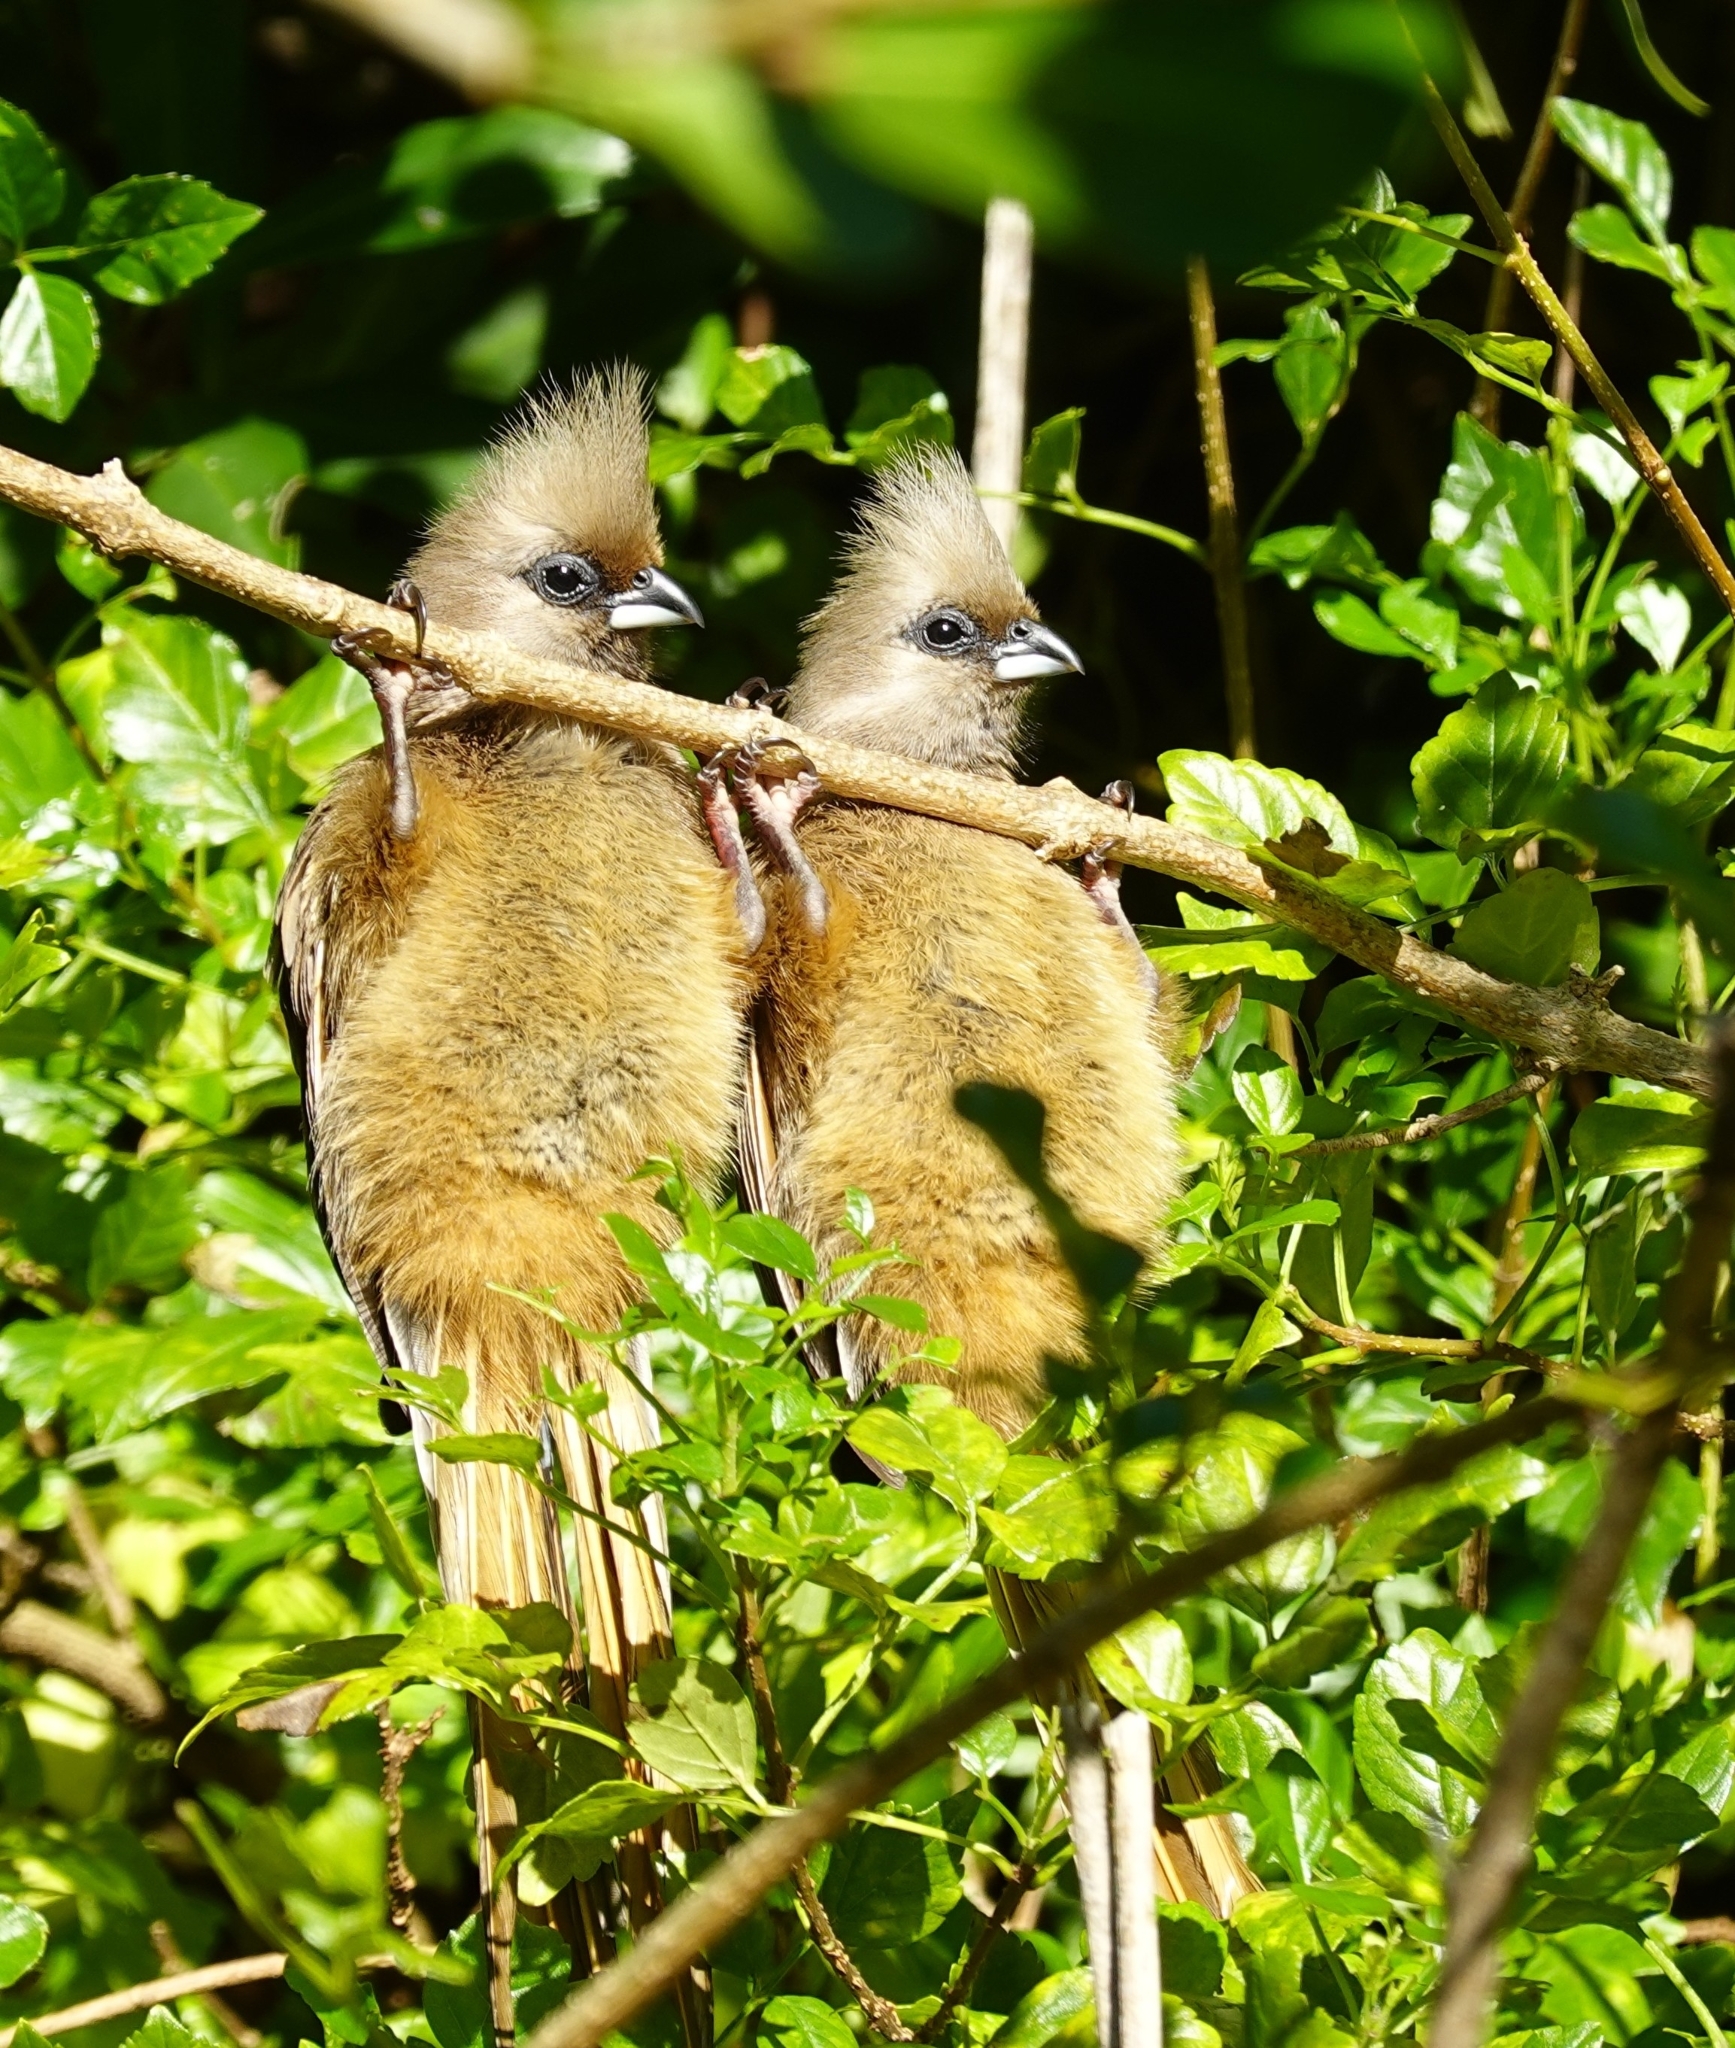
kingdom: Animalia
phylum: Chordata
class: Aves
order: Coliiformes
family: Coliidae
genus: Colius
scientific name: Colius striatus
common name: Speckled mousebird
